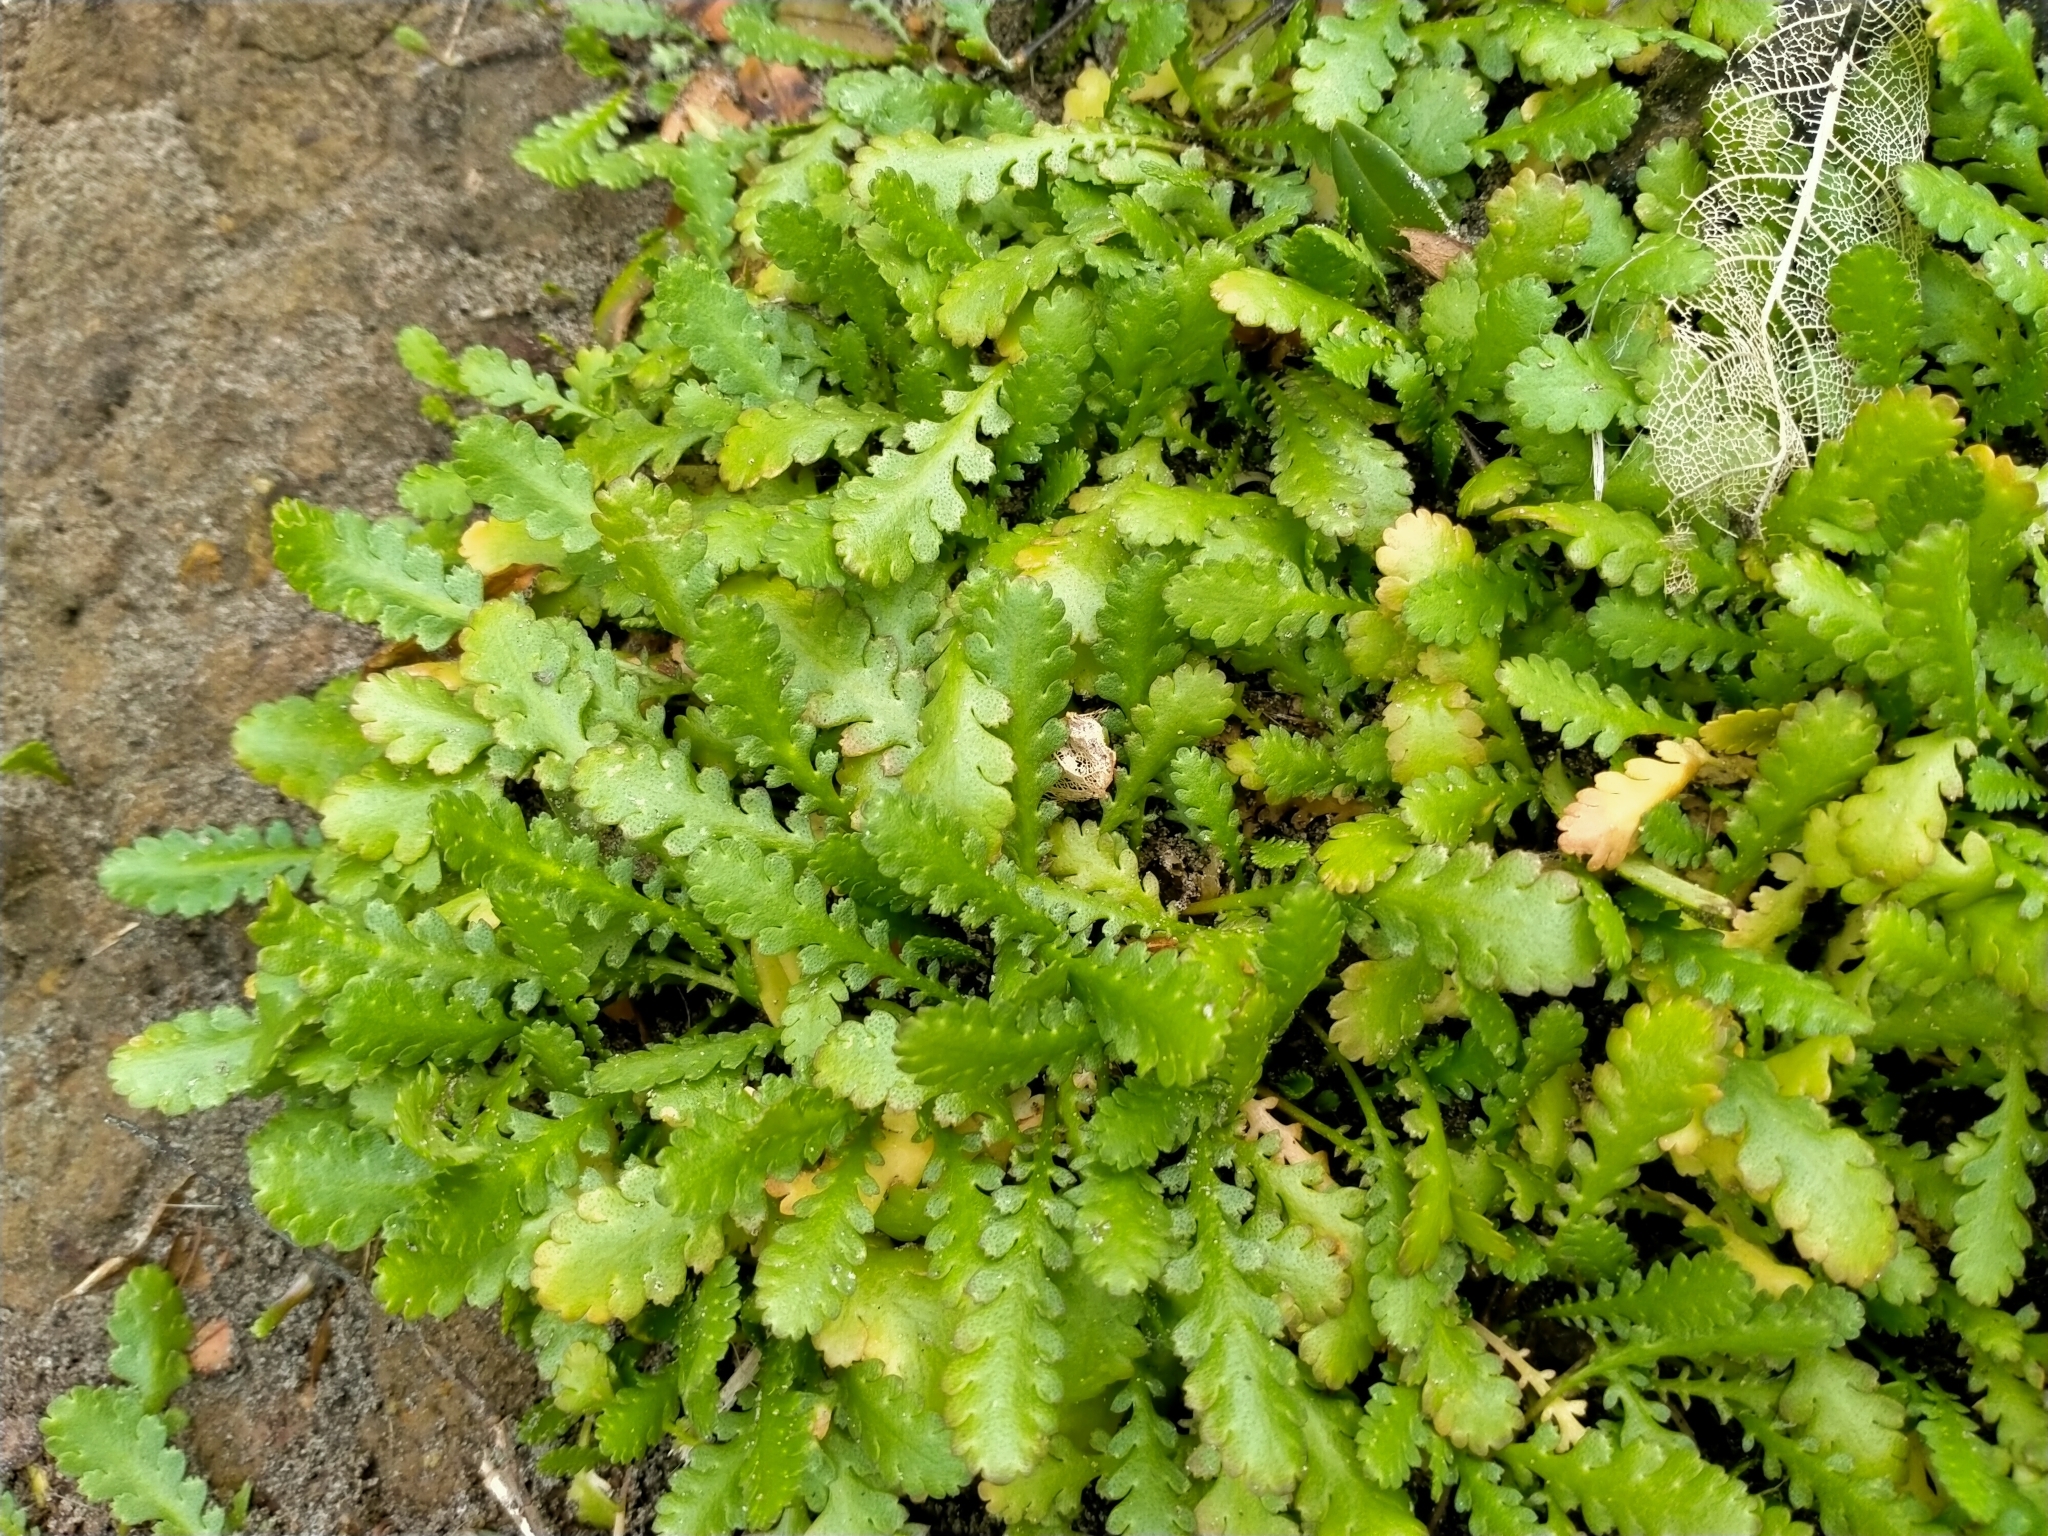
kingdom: Plantae
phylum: Tracheophyta
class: Magnoliopsida
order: Asterales
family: Asteraceae
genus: Leptinella
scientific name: Leptinella dioica
